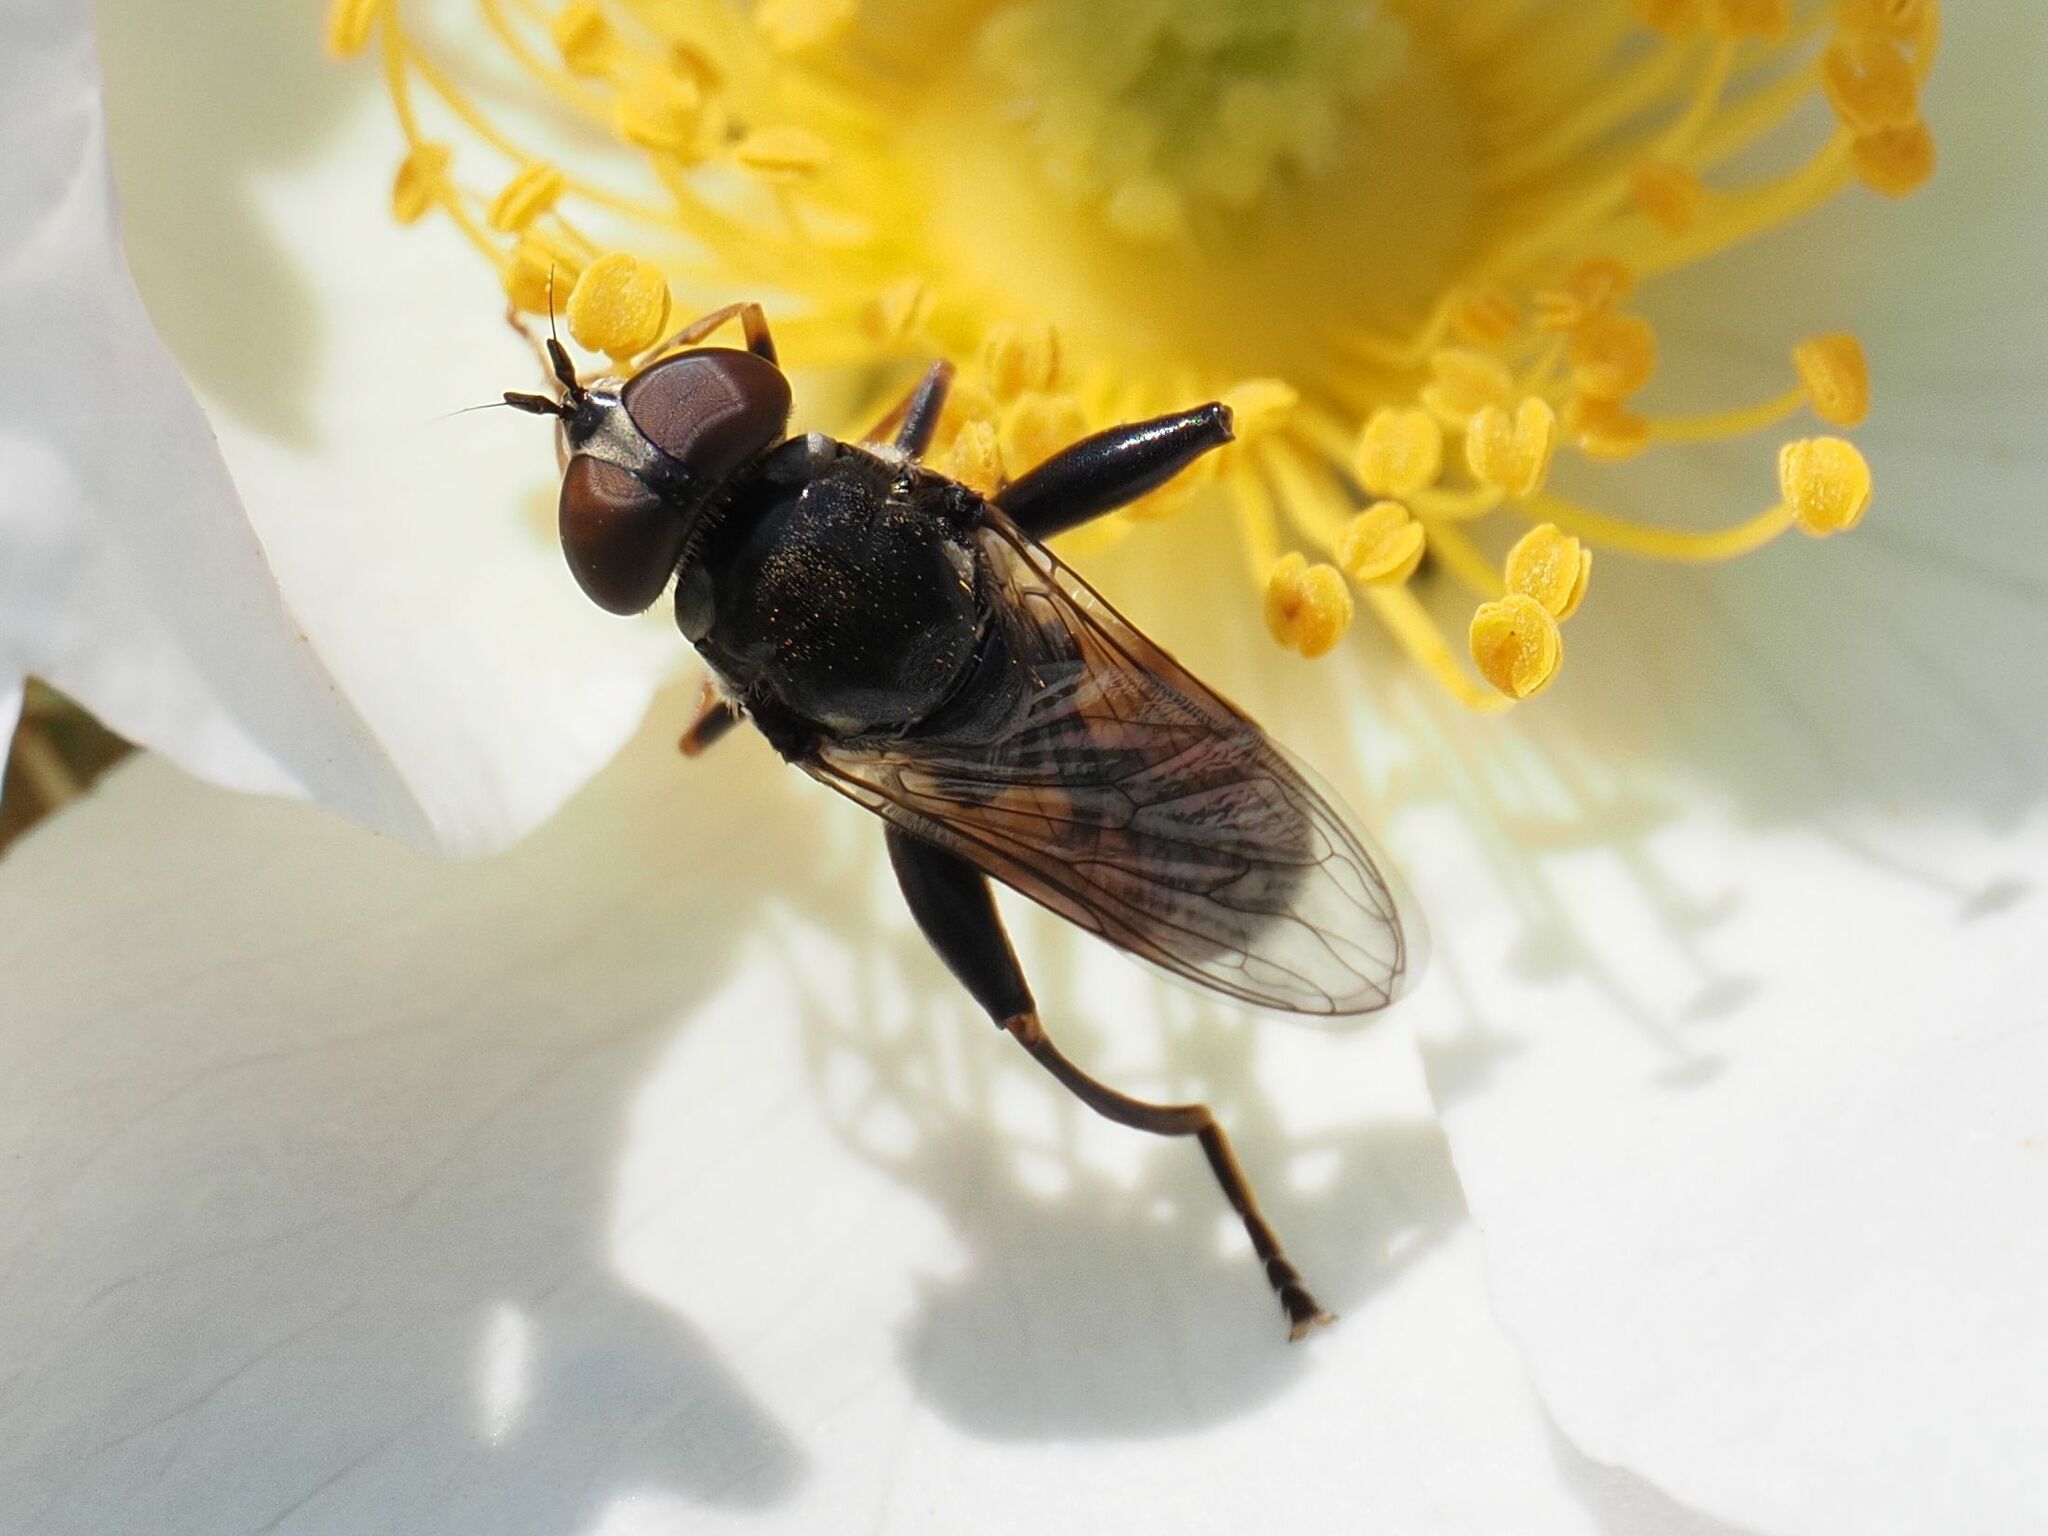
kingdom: Animalia
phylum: Arthropoda
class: Insecta
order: Diptera
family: Syrphidae
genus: Tropidia
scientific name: Tropidia scita
